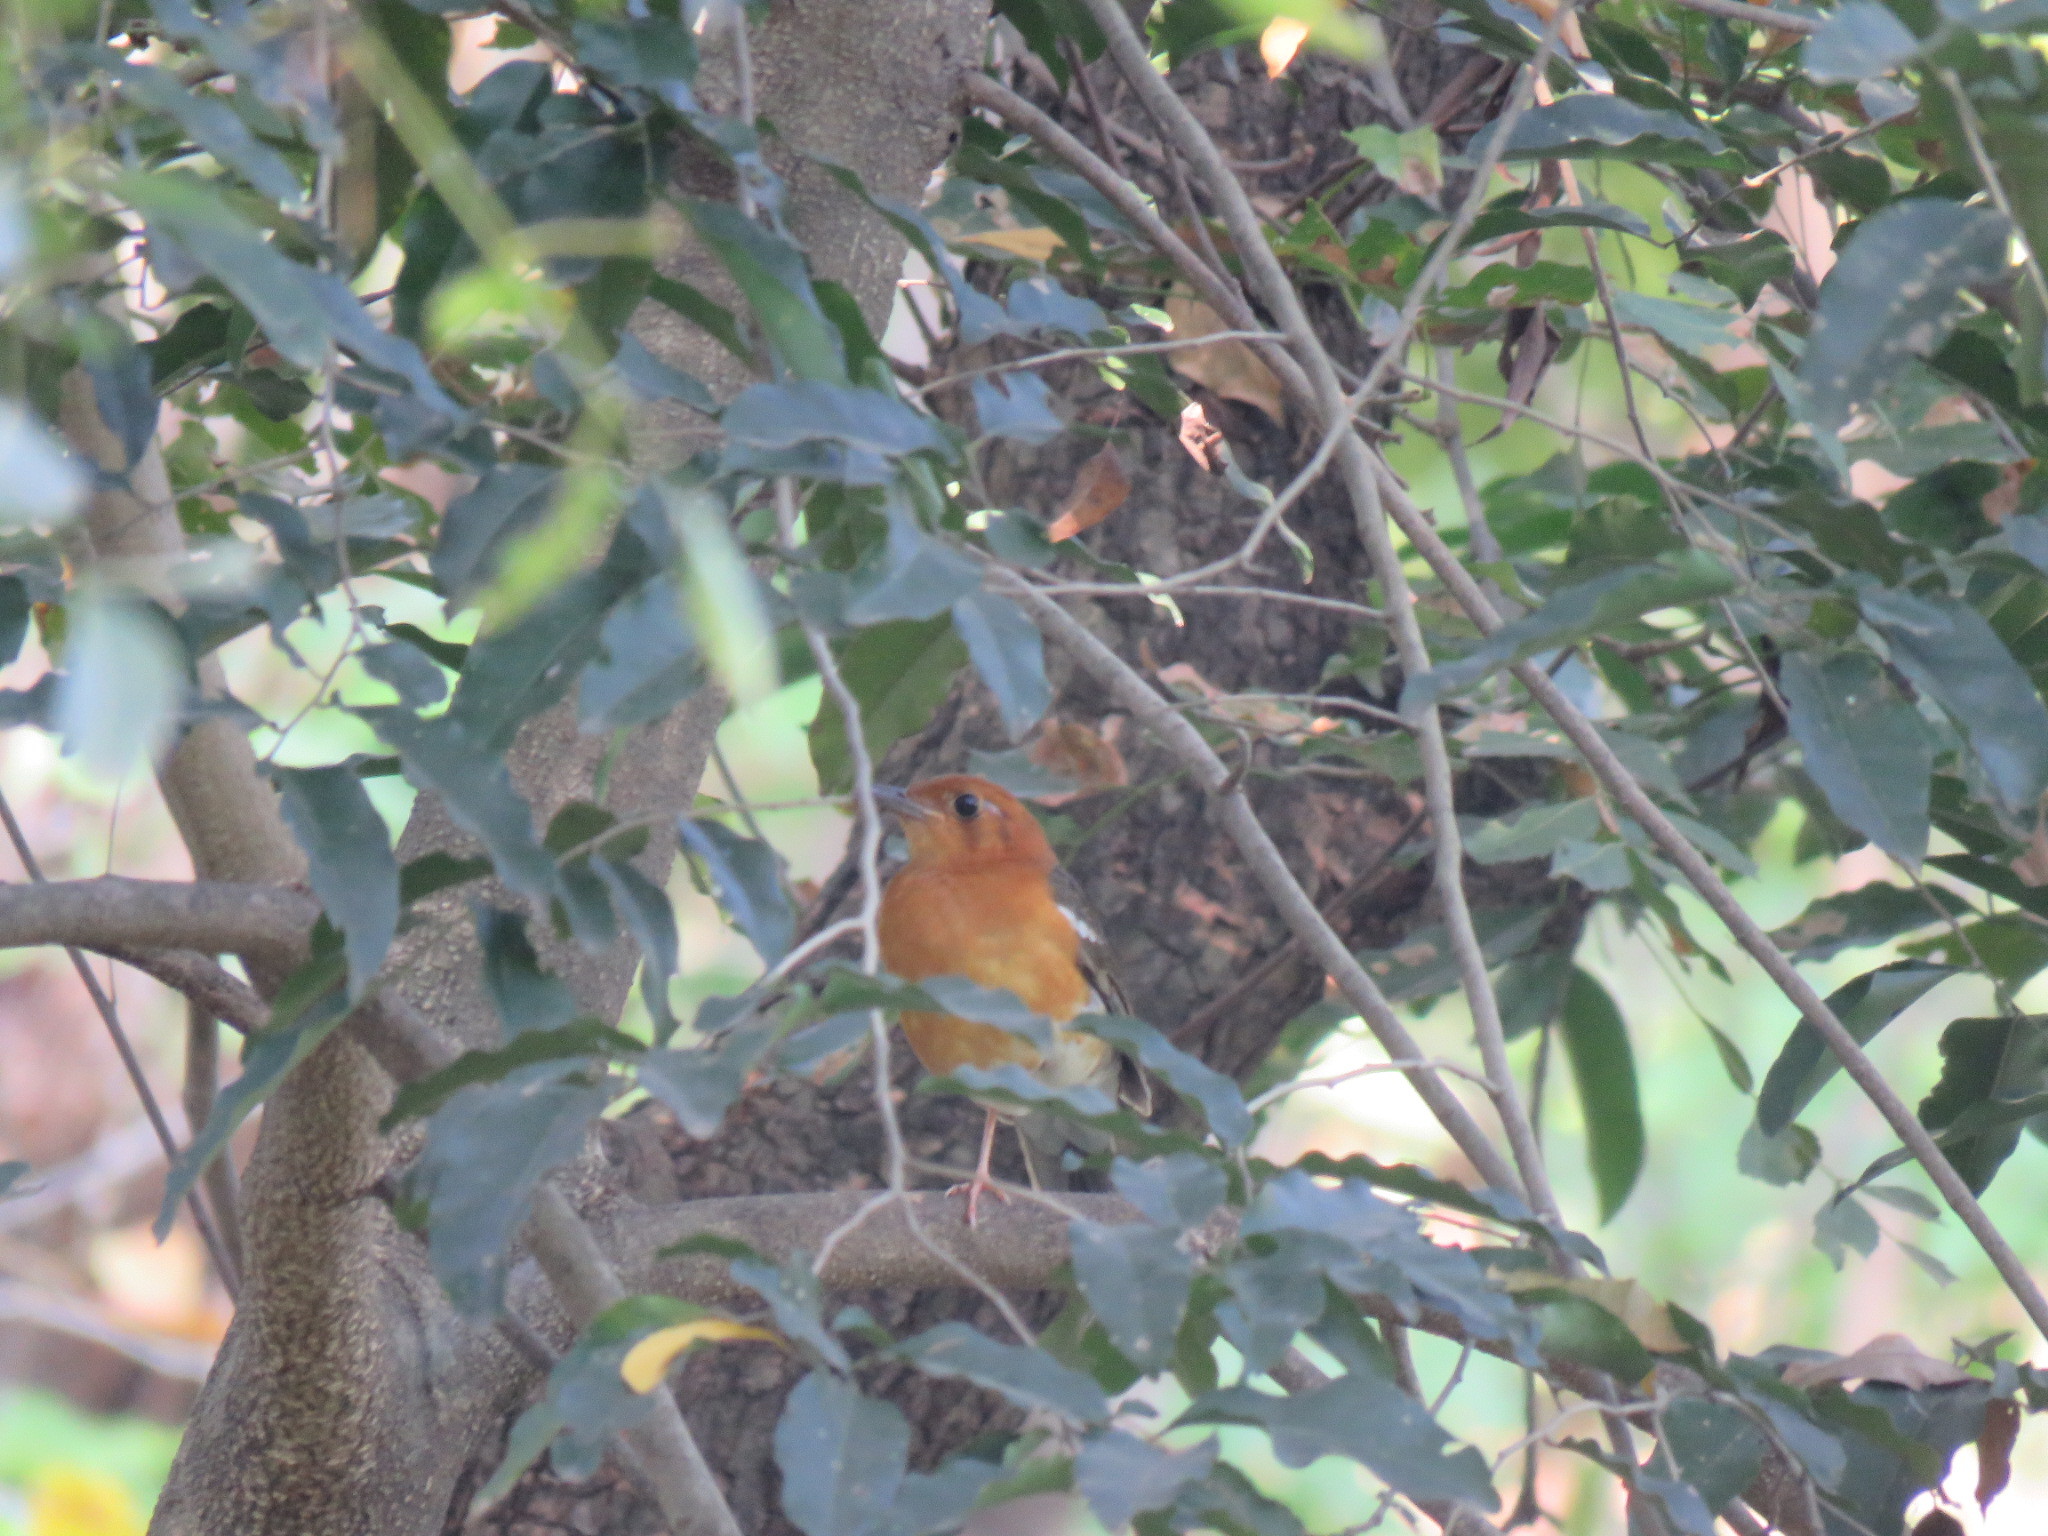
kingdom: Animalia
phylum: Chordata
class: Aves
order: Passeriformes
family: Turdidae
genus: Geokichla
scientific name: Geokichla citrina
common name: Orange-headed thrush
